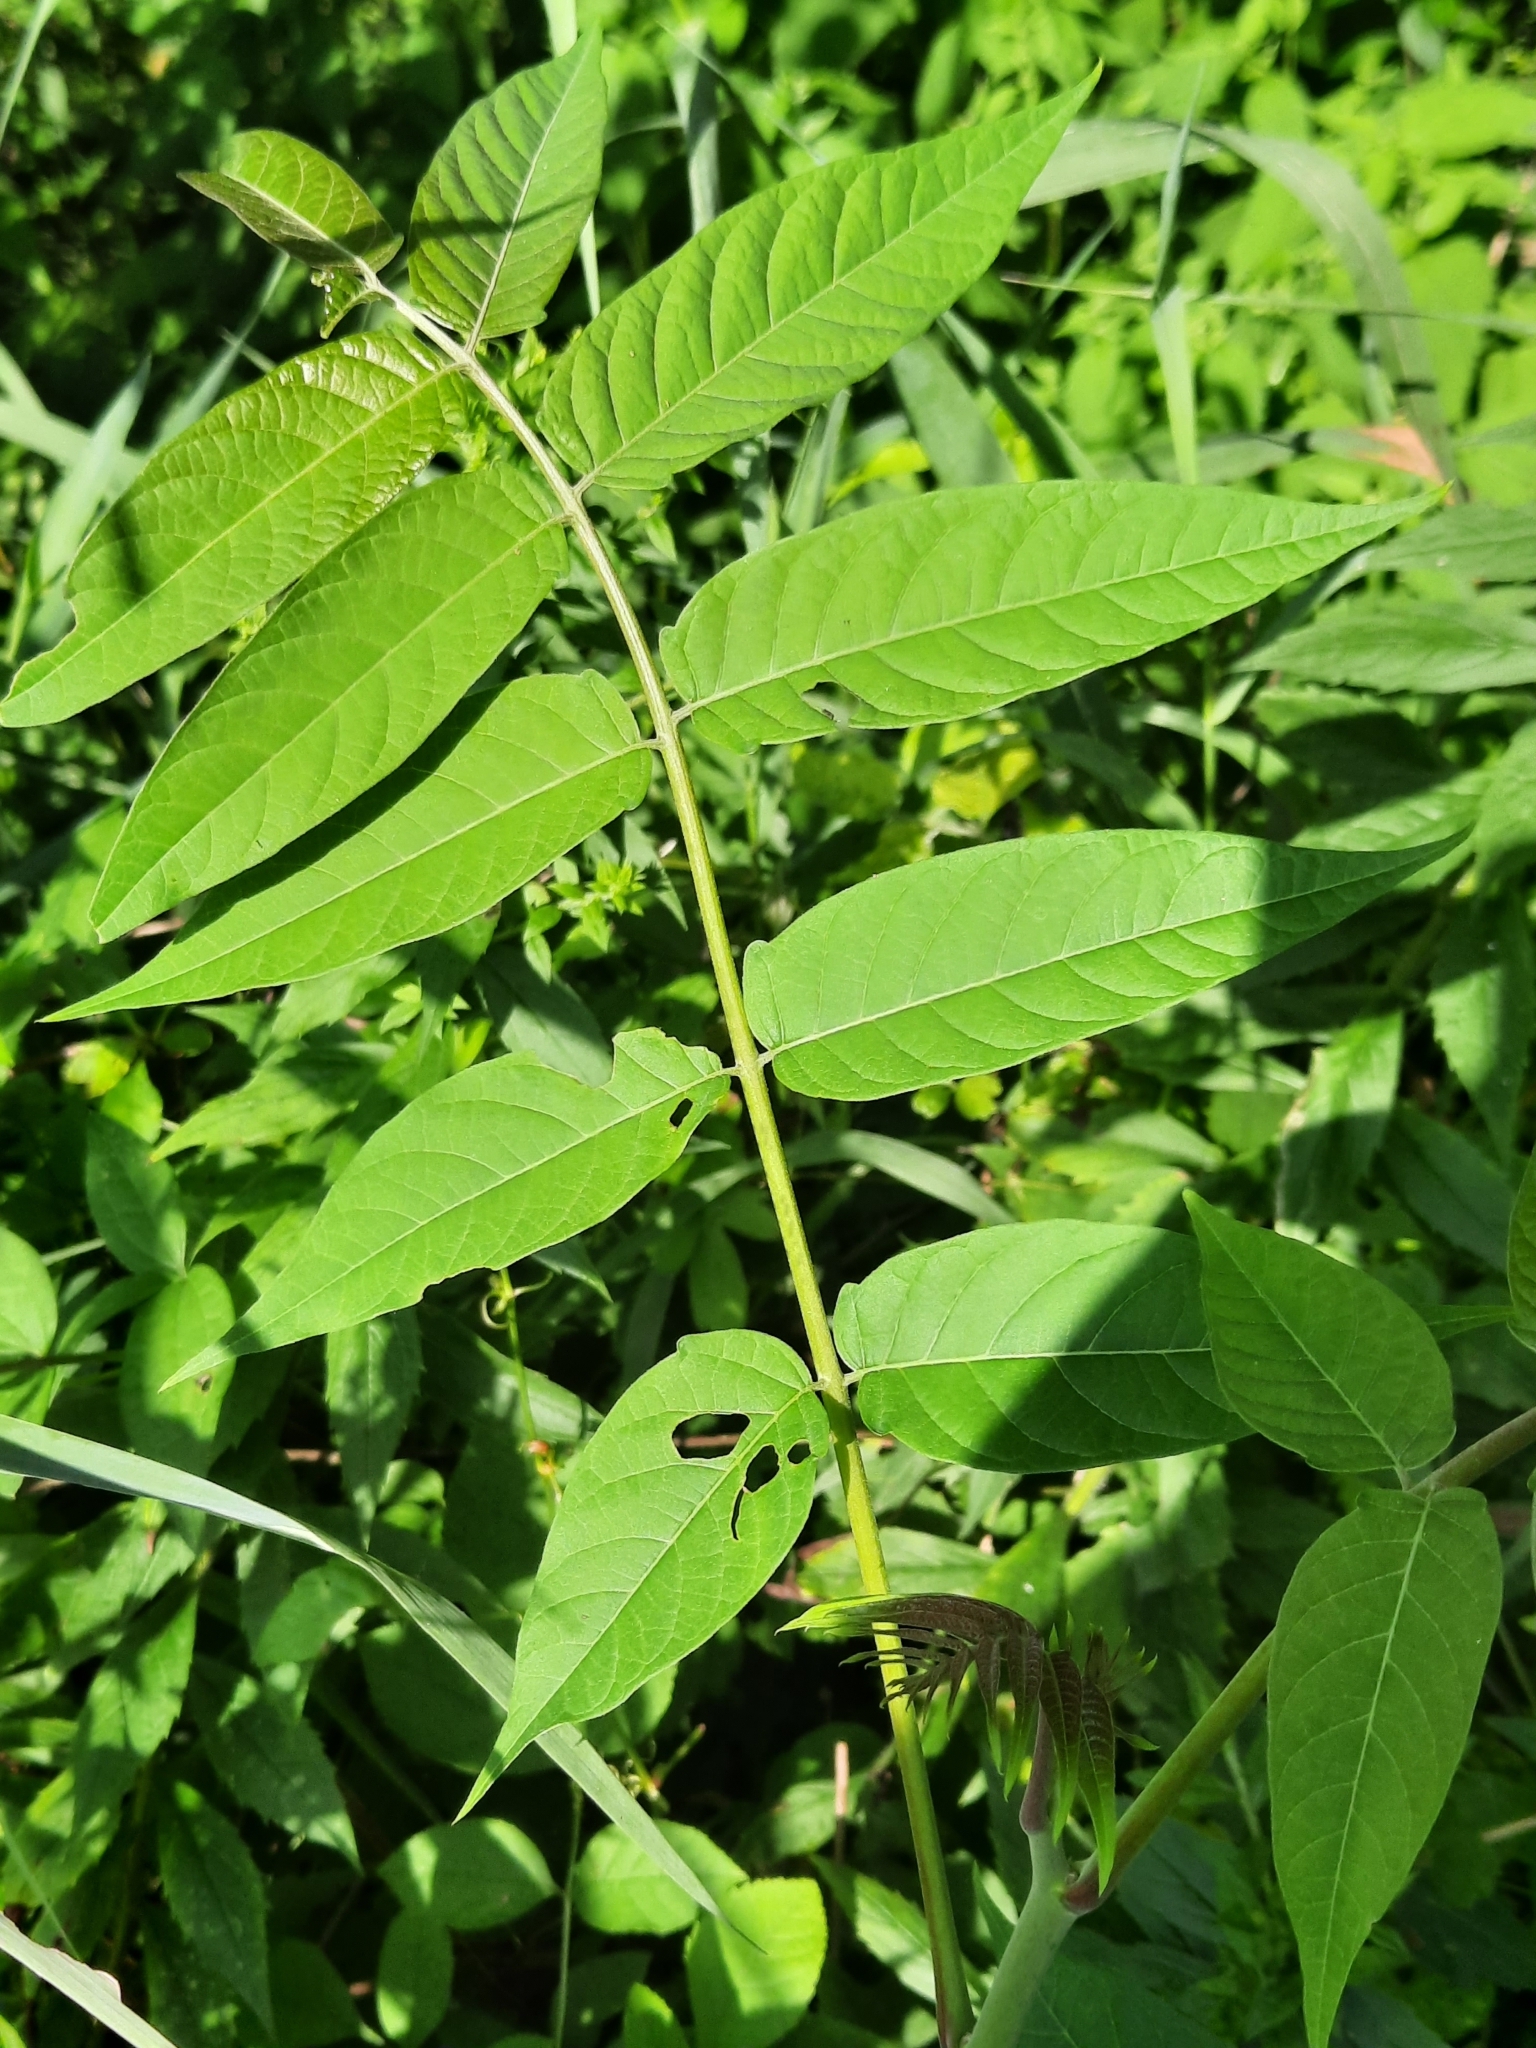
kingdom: Plantae
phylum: Tracheophyta
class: Magnoliopsida
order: Sapindales
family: Simaroubaceae
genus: Ailanthus
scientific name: Ailanthus altissima
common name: Tree-of-heaven
